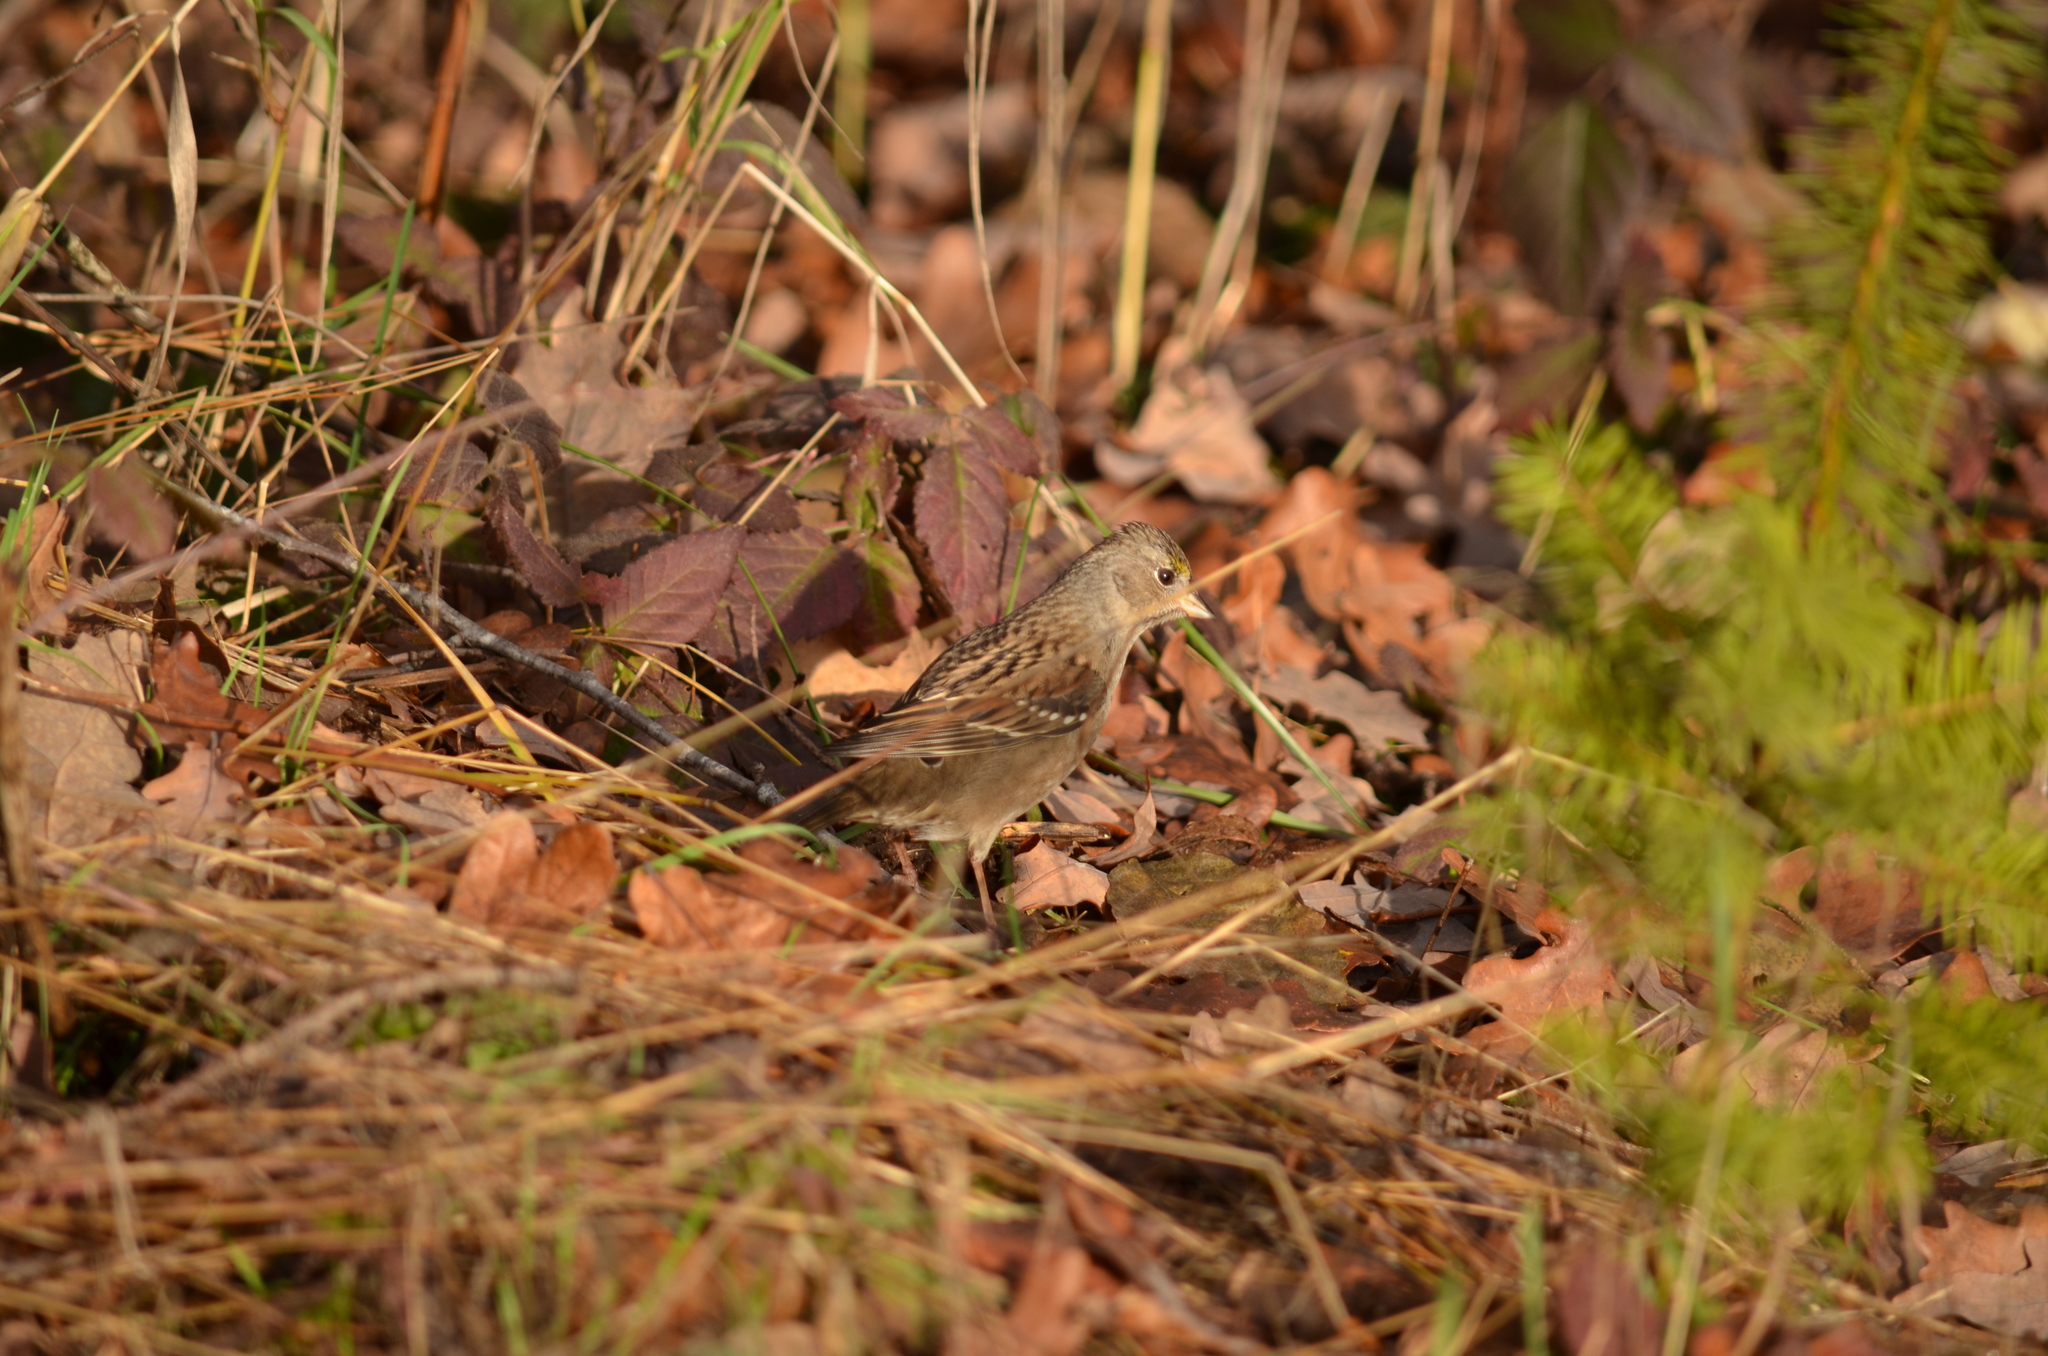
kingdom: Animalia
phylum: Chordata
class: Aves
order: Passeriformes
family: Passerellidae
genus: Zonotrichia
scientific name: Zonotrichia atricapilla
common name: Golden-crowned sparrow
